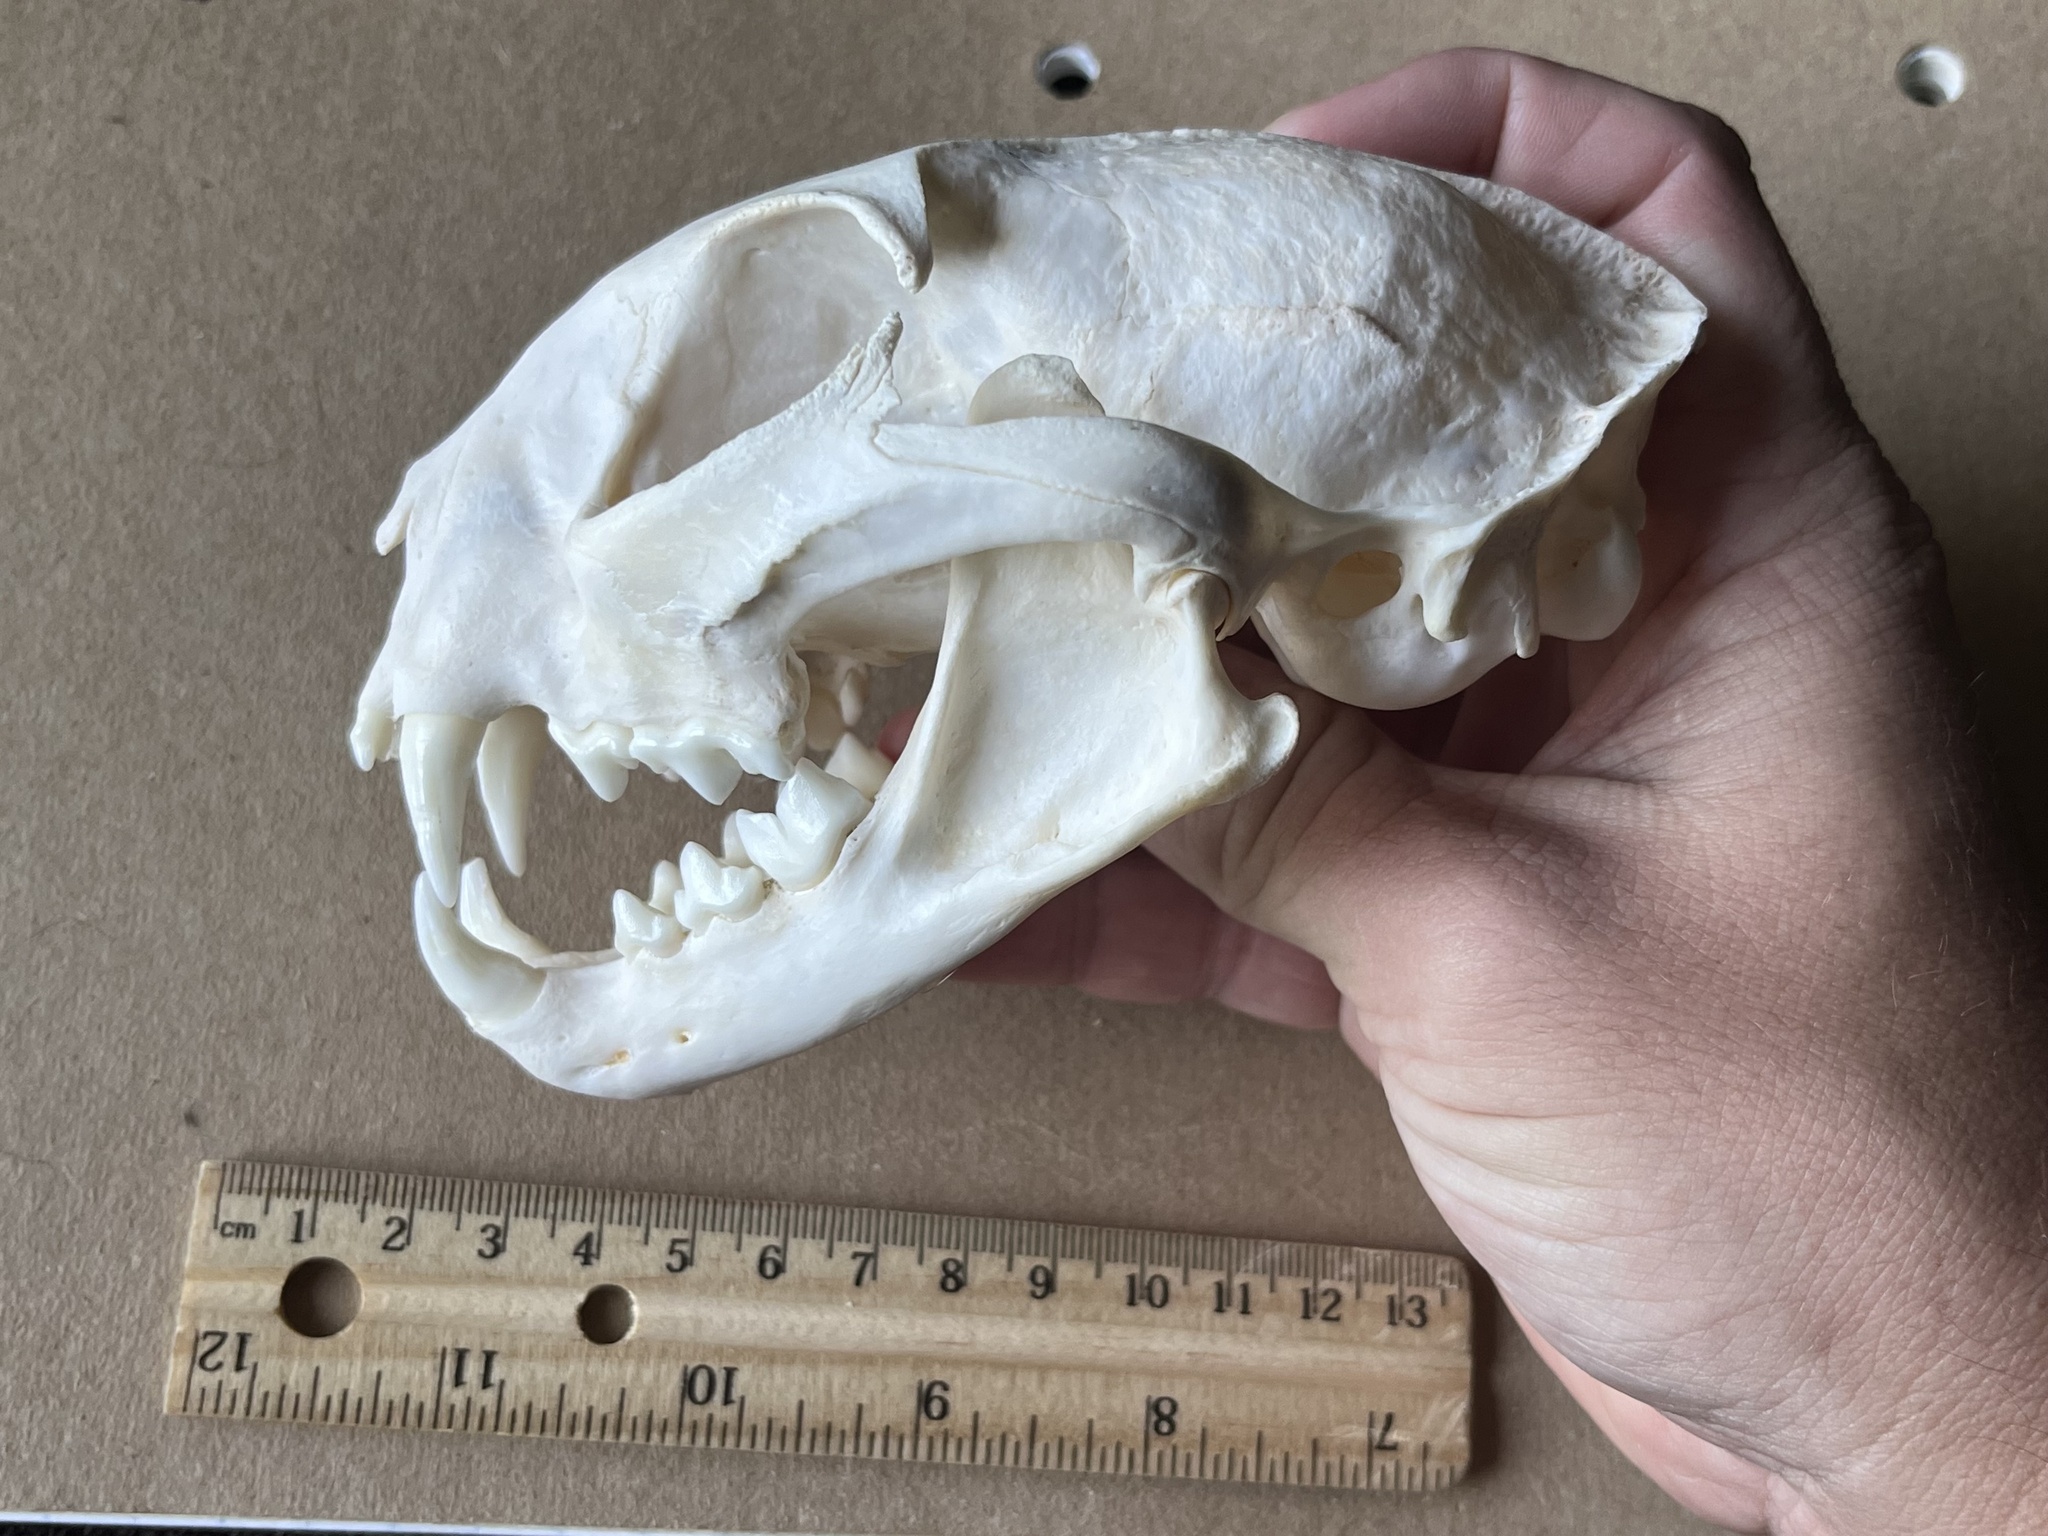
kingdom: Animalia
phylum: Chordata
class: Mammalia
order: Carnivora
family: Felidae
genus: Lynx
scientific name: Lynx rufus
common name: Bobcat
